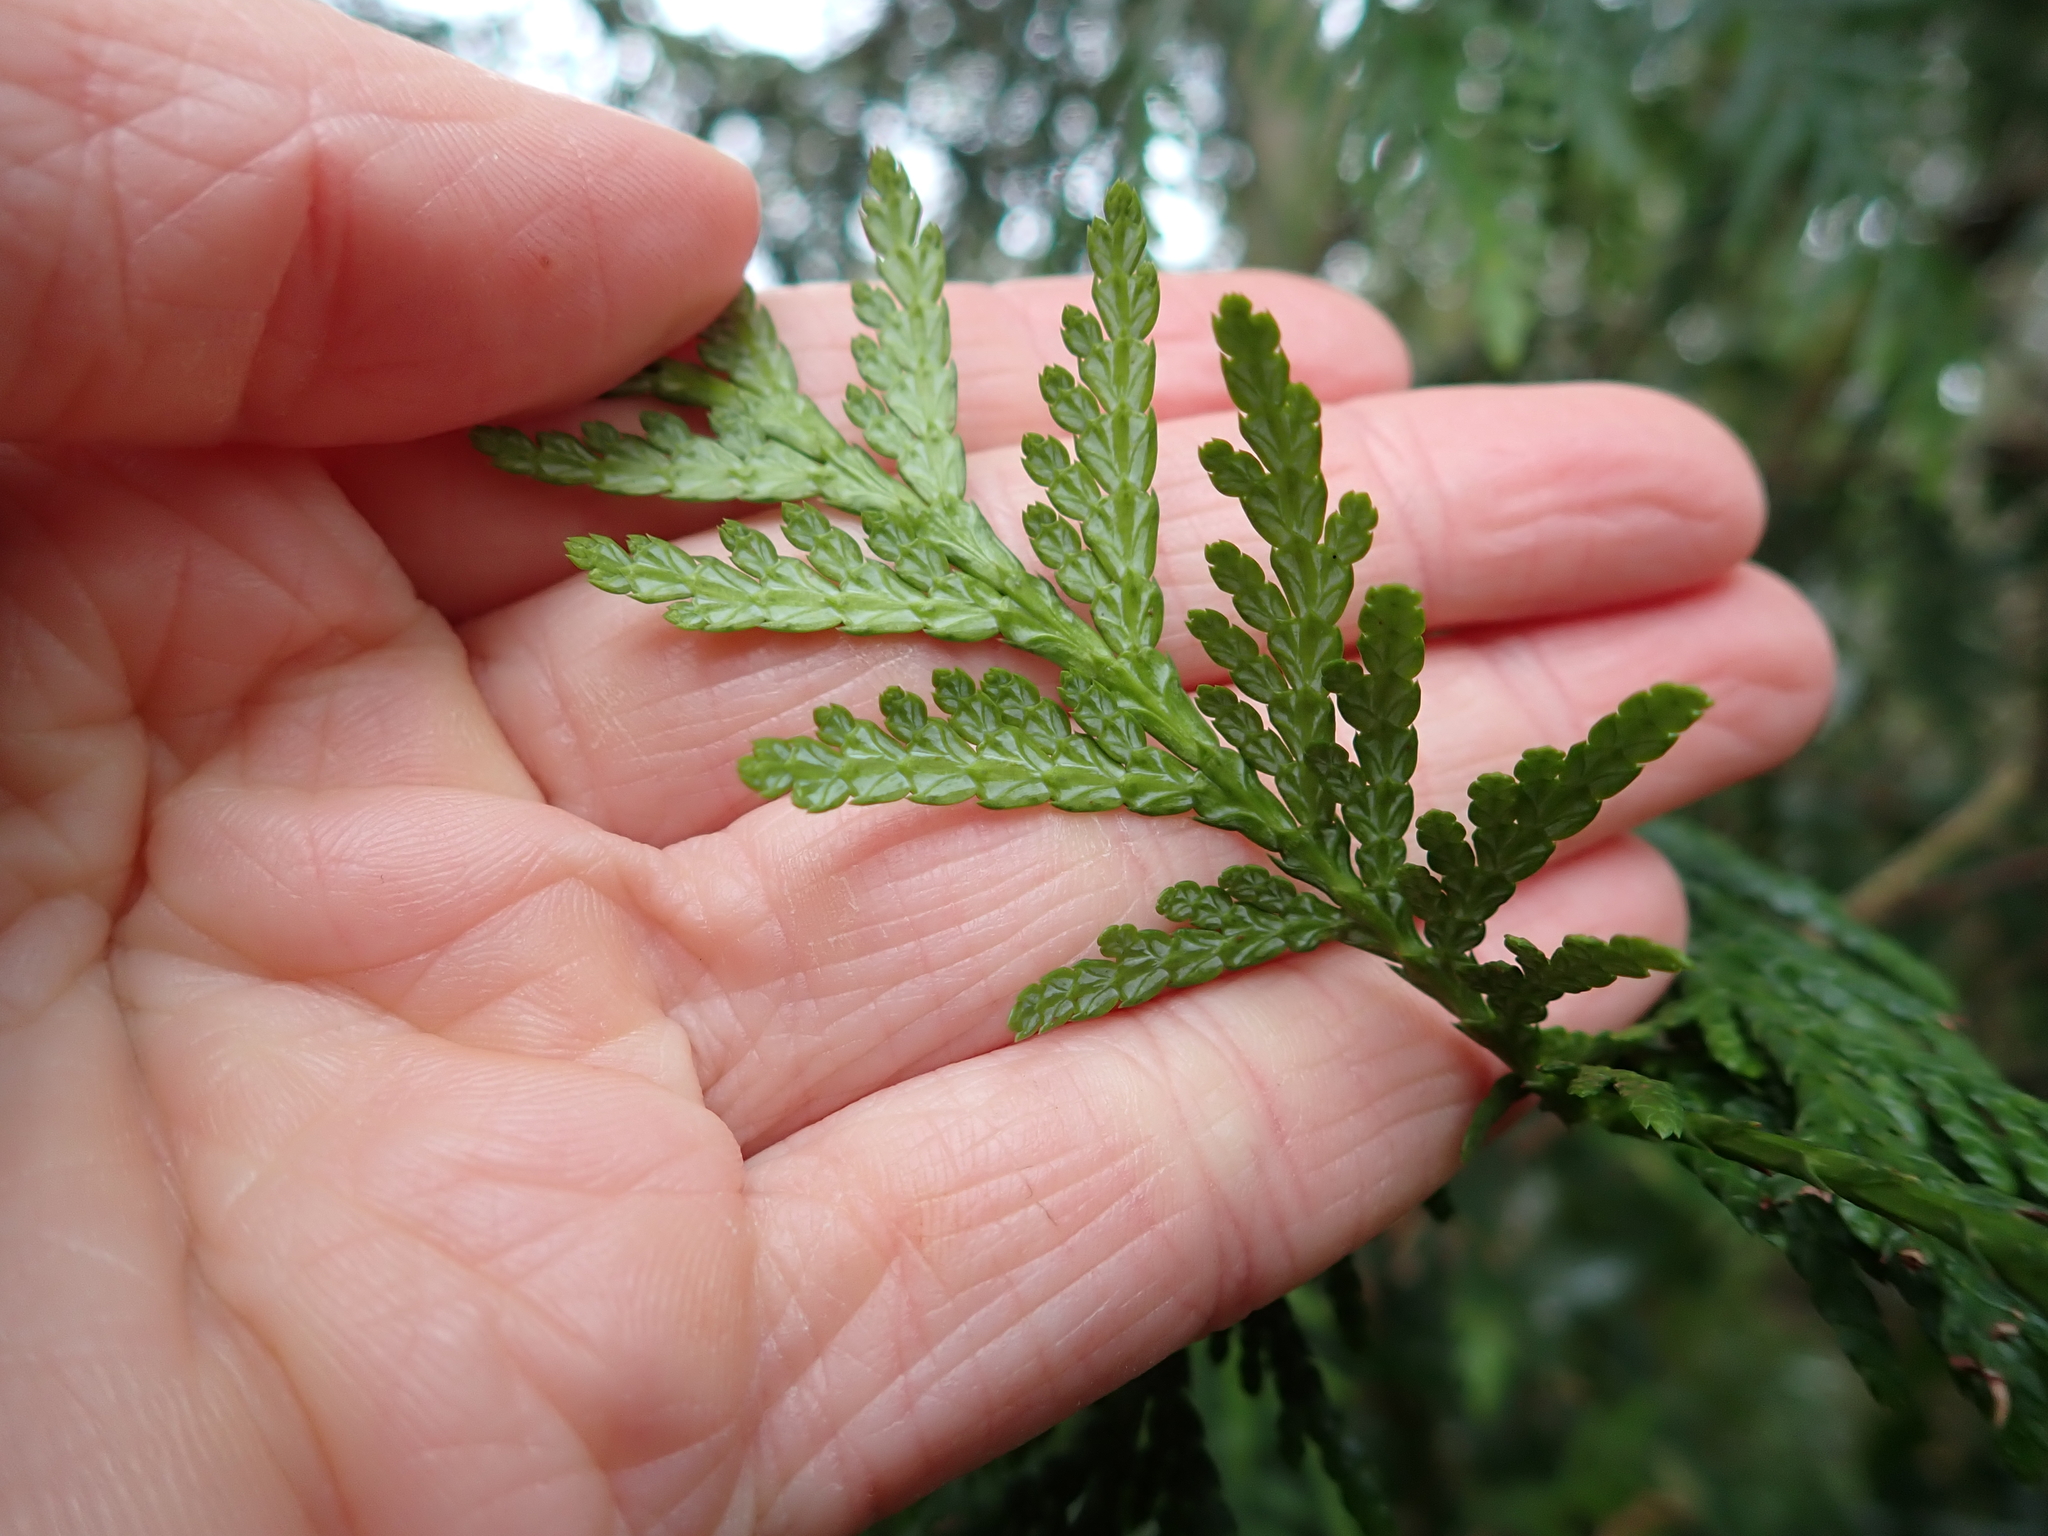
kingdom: Plantae
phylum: Tracheophyta
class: Pinopsida
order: Pinales
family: Cupressaceae
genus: Thuja
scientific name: Thuja plicata
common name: Western red-cedar
